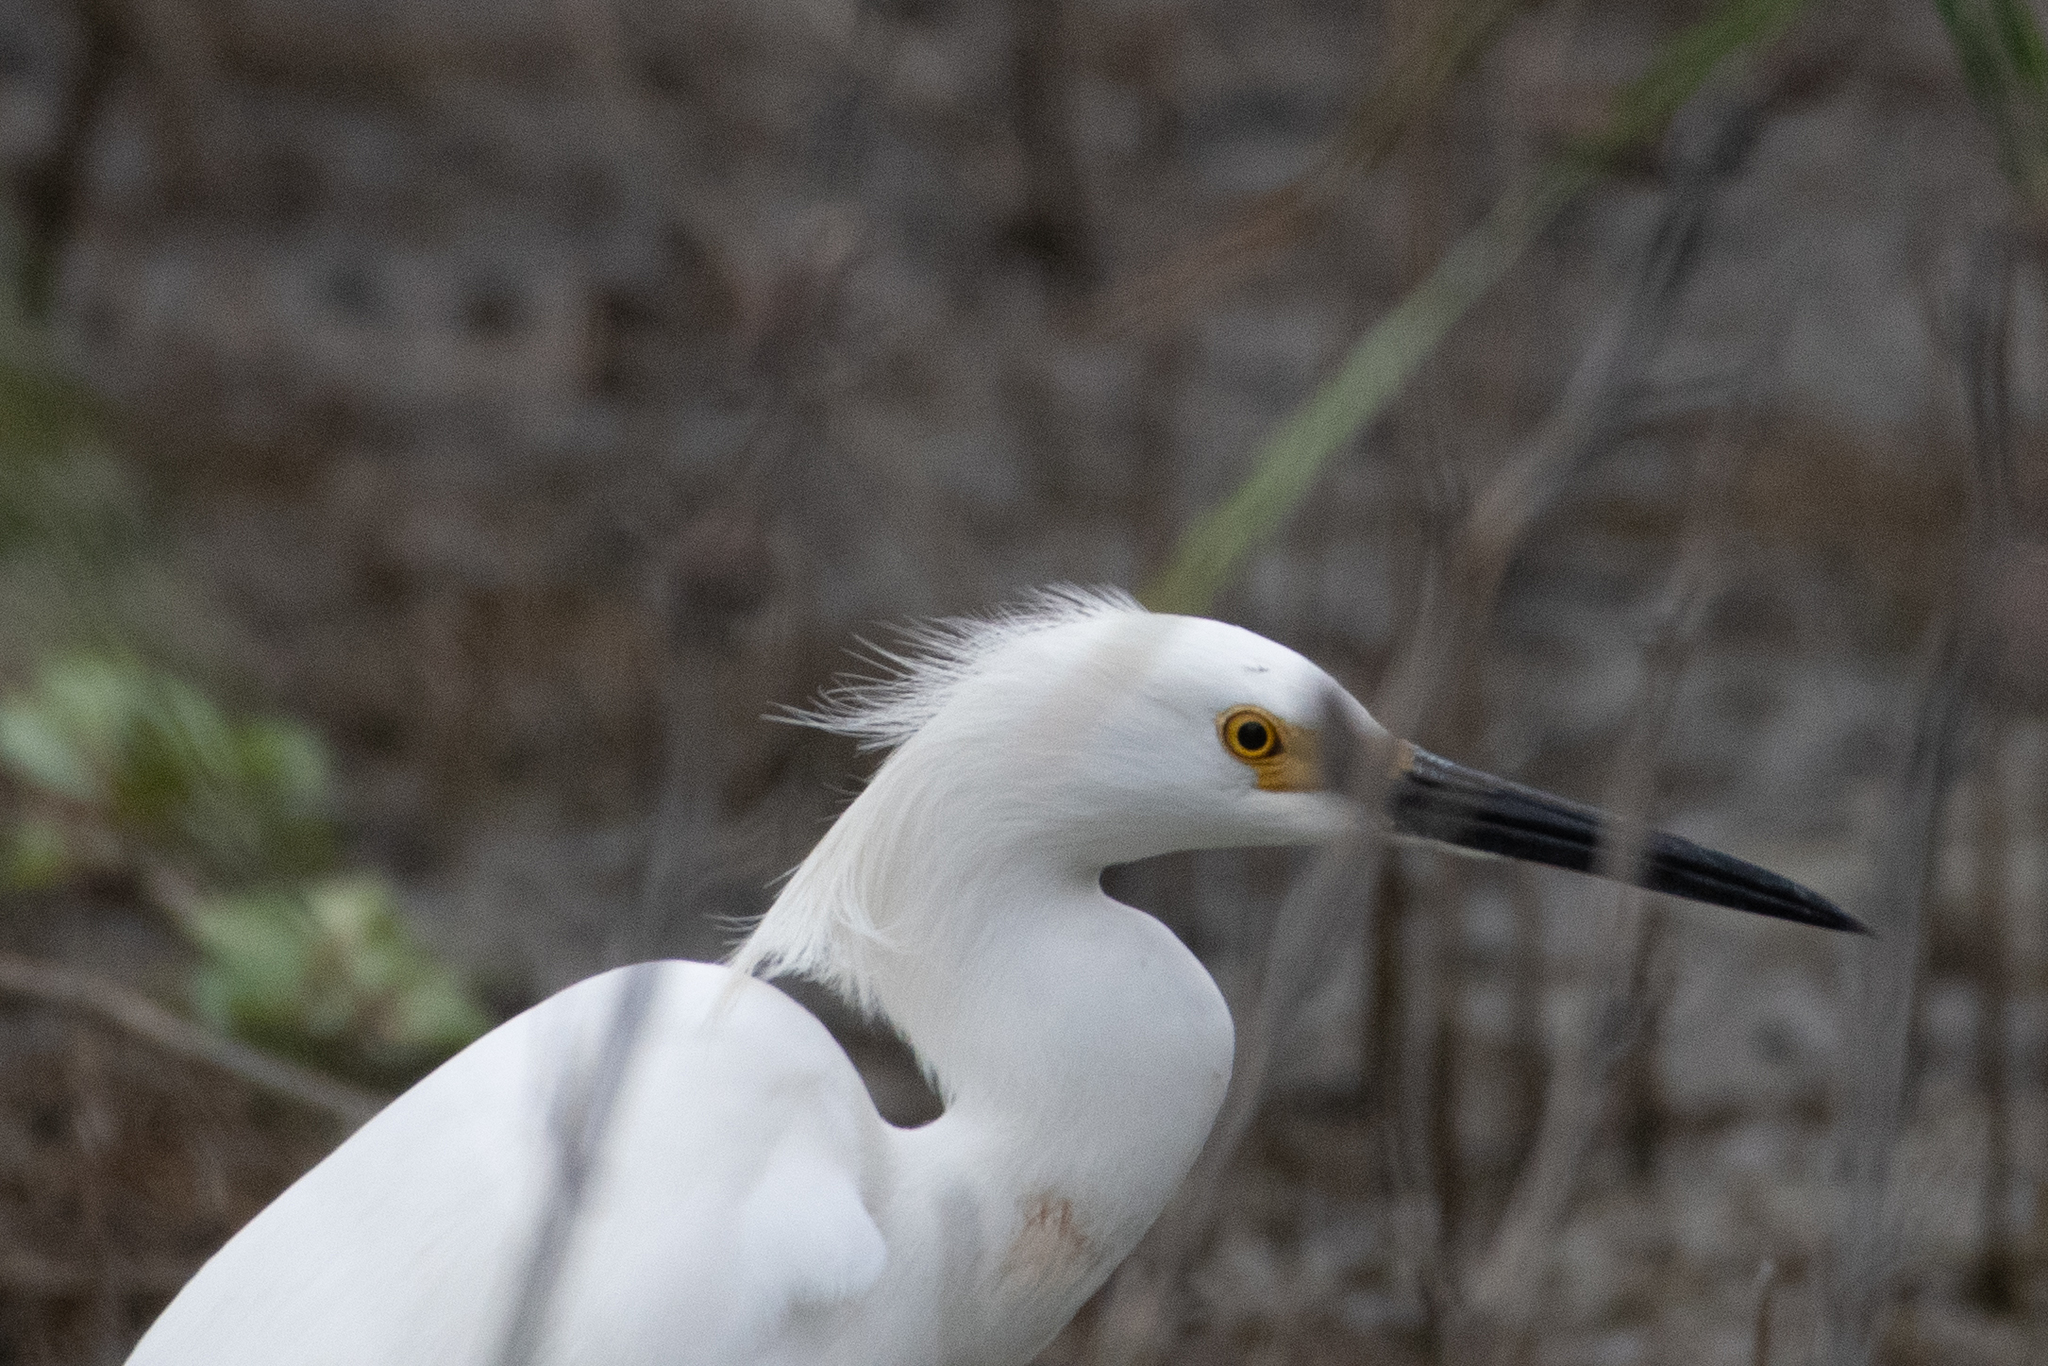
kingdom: Animalia
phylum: Chordata
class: Aves
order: Pelecaniformes
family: Ardeidae
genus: Egretta
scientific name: Egretta thula
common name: Snowy egret
